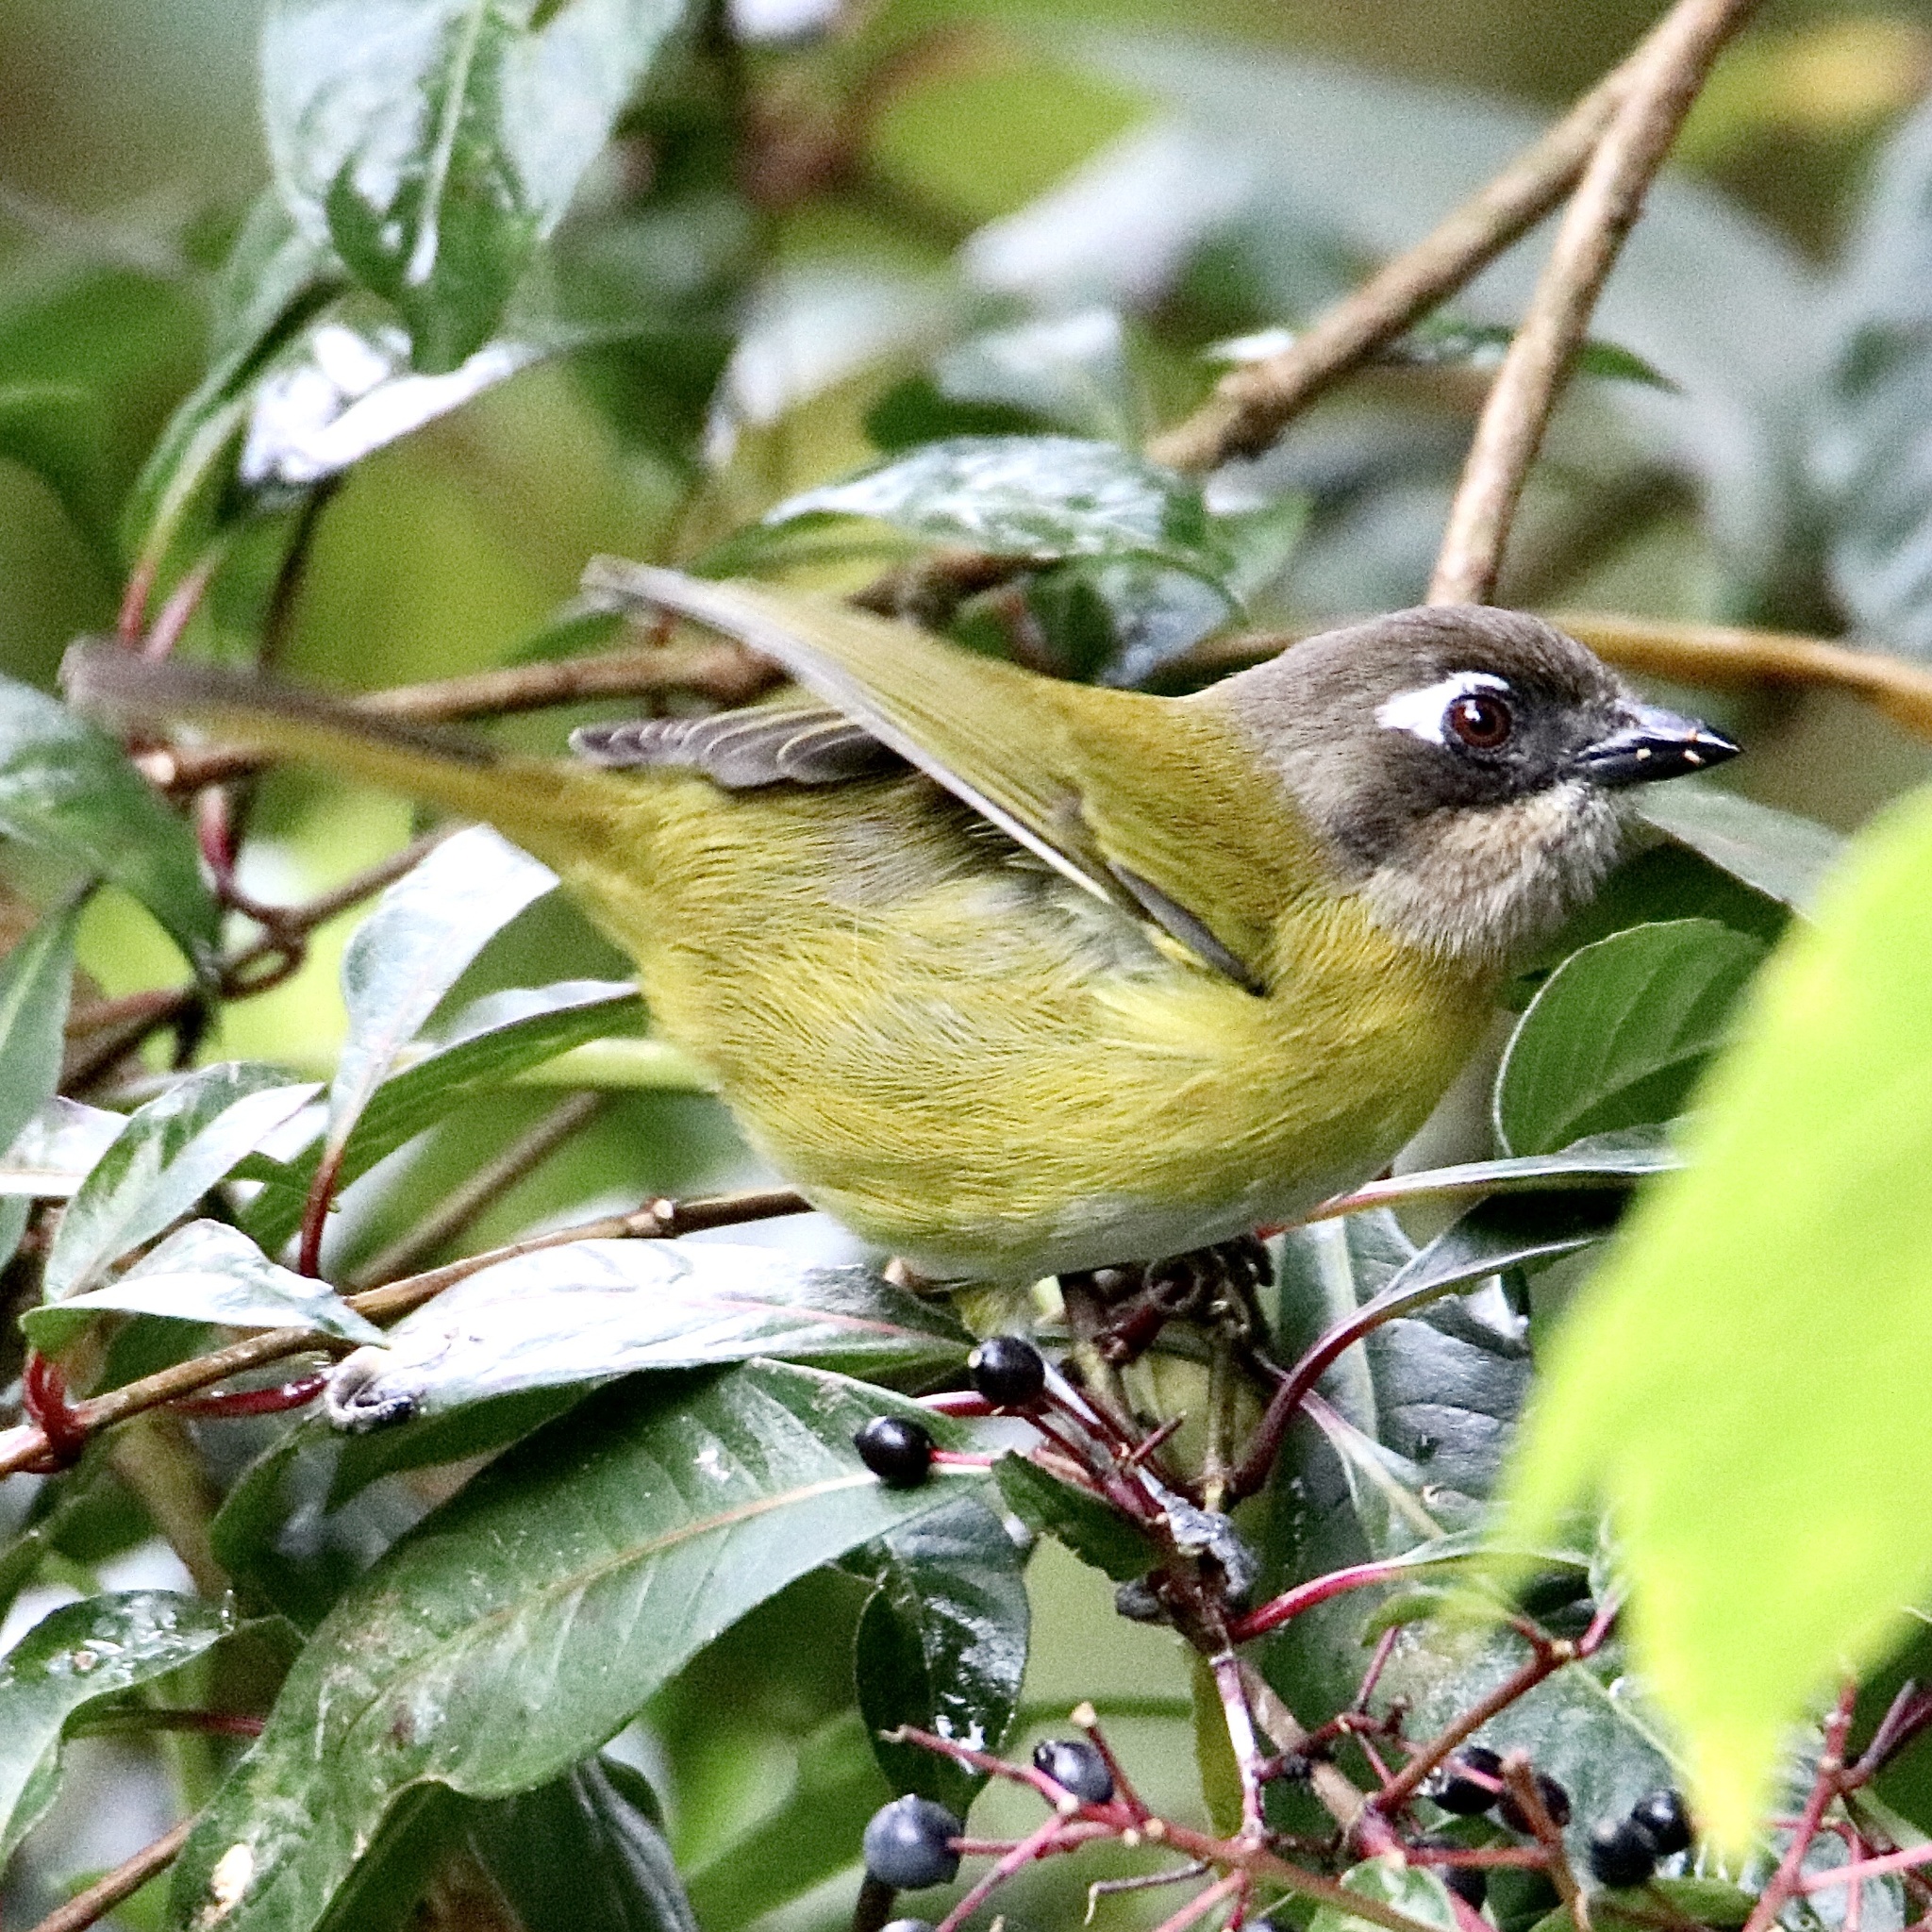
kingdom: Animalia
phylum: Chordata
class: Aves
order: Passeriformes
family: Passerellidae
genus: Chlorospingus
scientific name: Chlorospingus flavopectus
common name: Common chlorospingus
